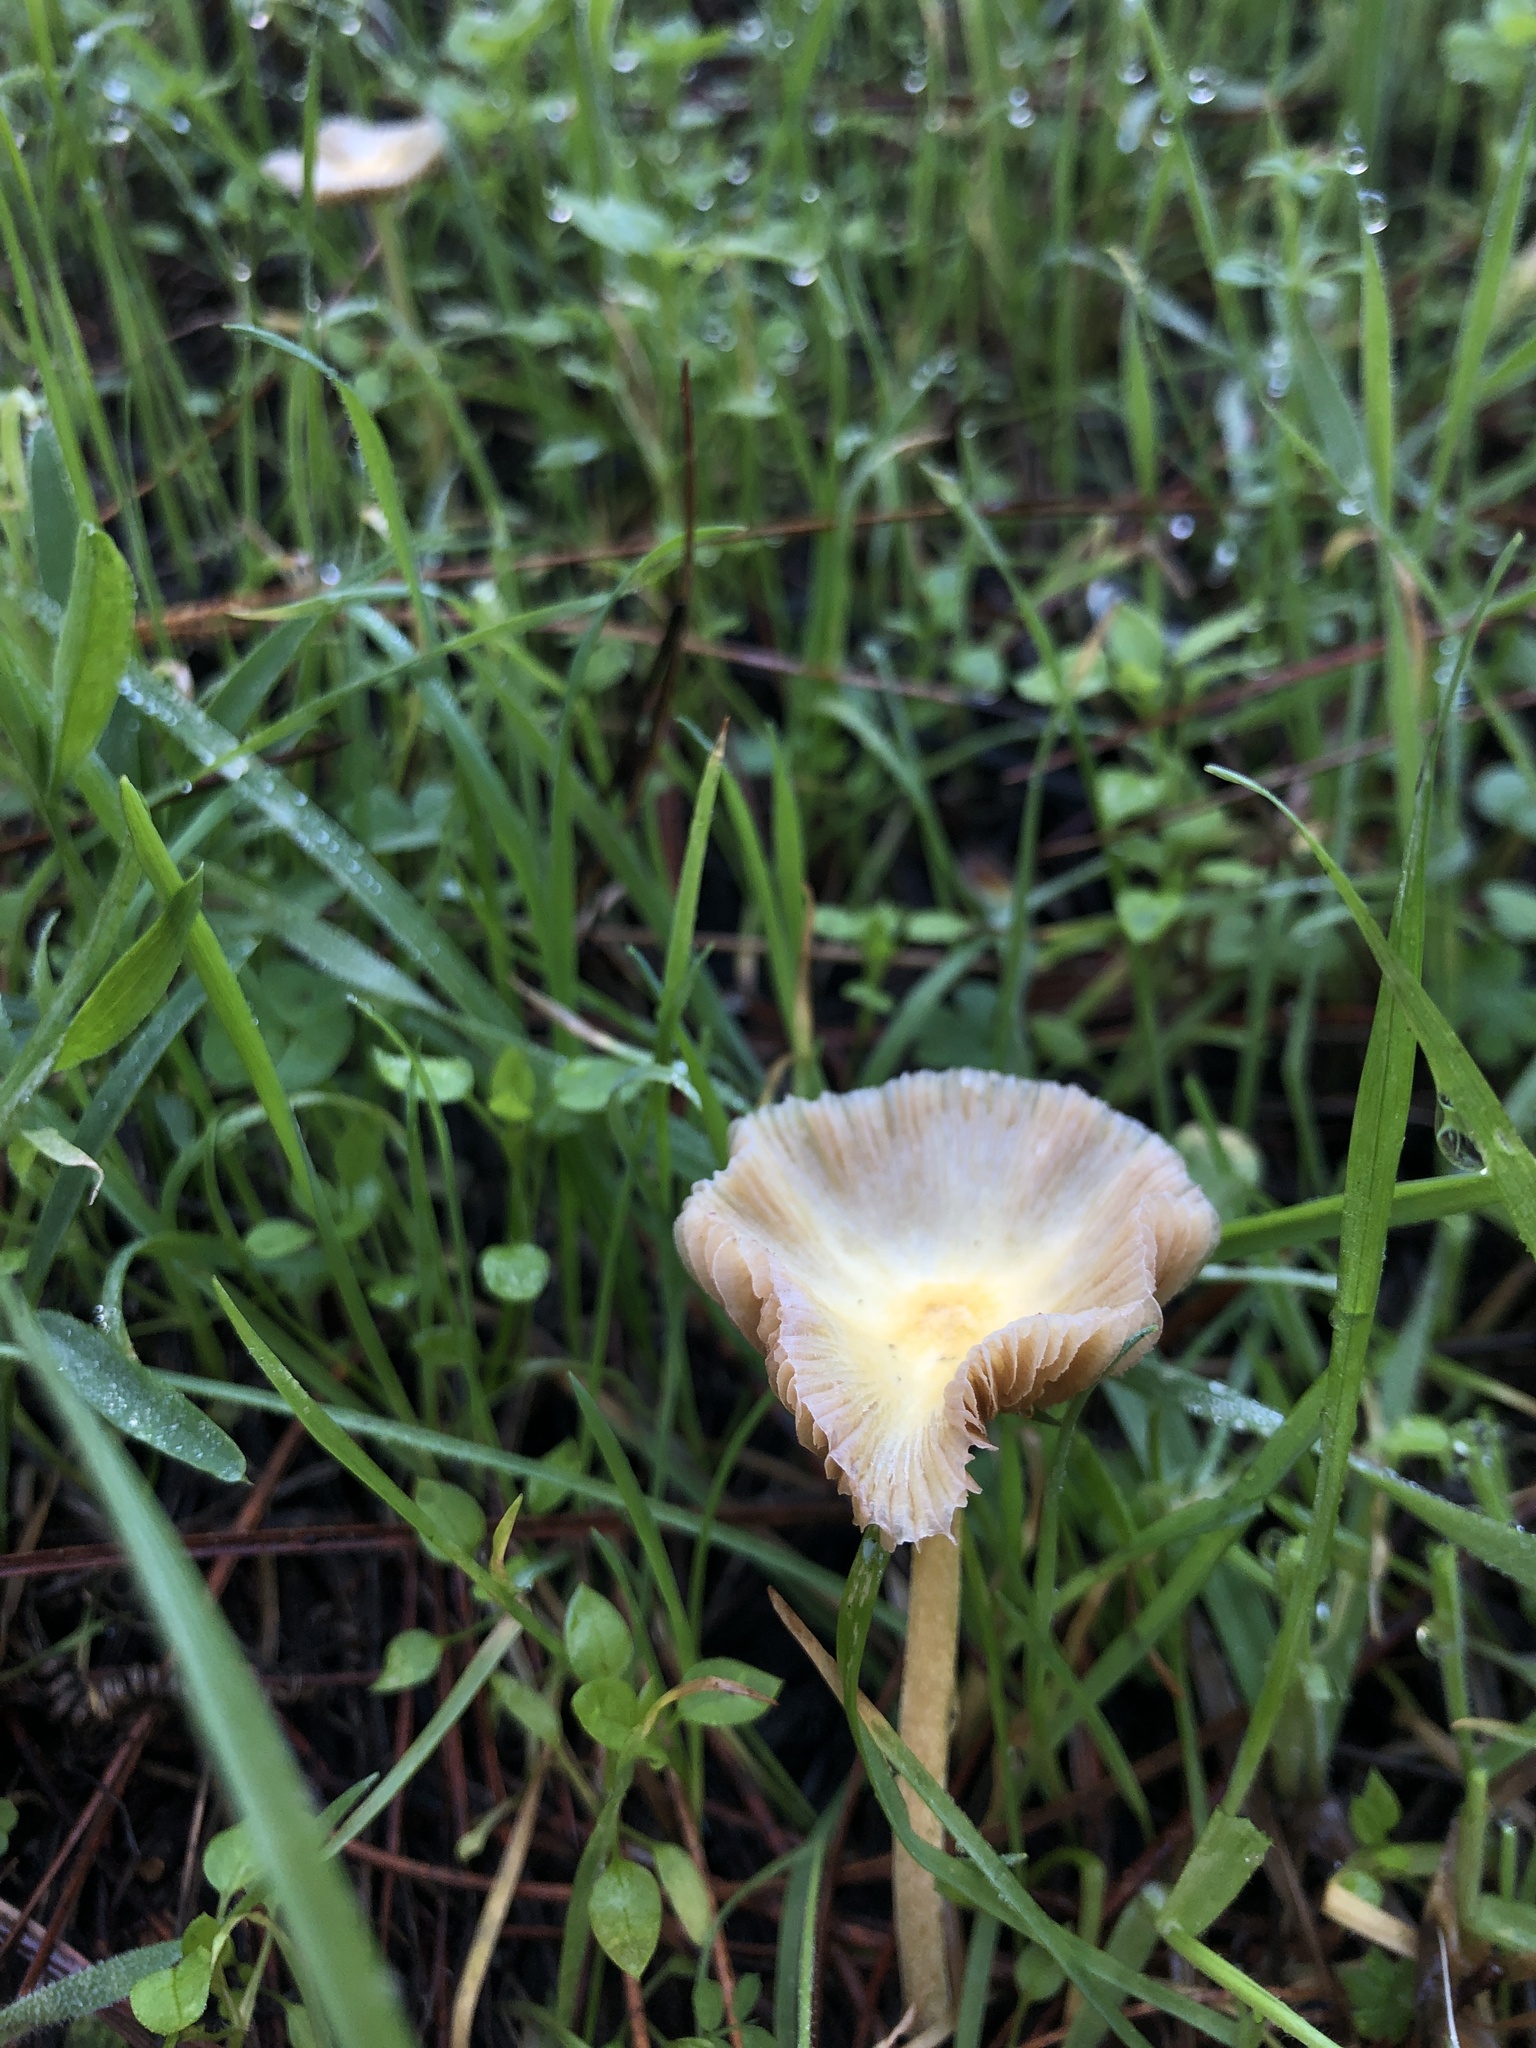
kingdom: Fungi
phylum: Basidiomycota
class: Agaricomycetes
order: Agaricales
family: Bolbitiaceae
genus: Bolbitius
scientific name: Bolbitius titubans
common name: Yellow fieldcap
